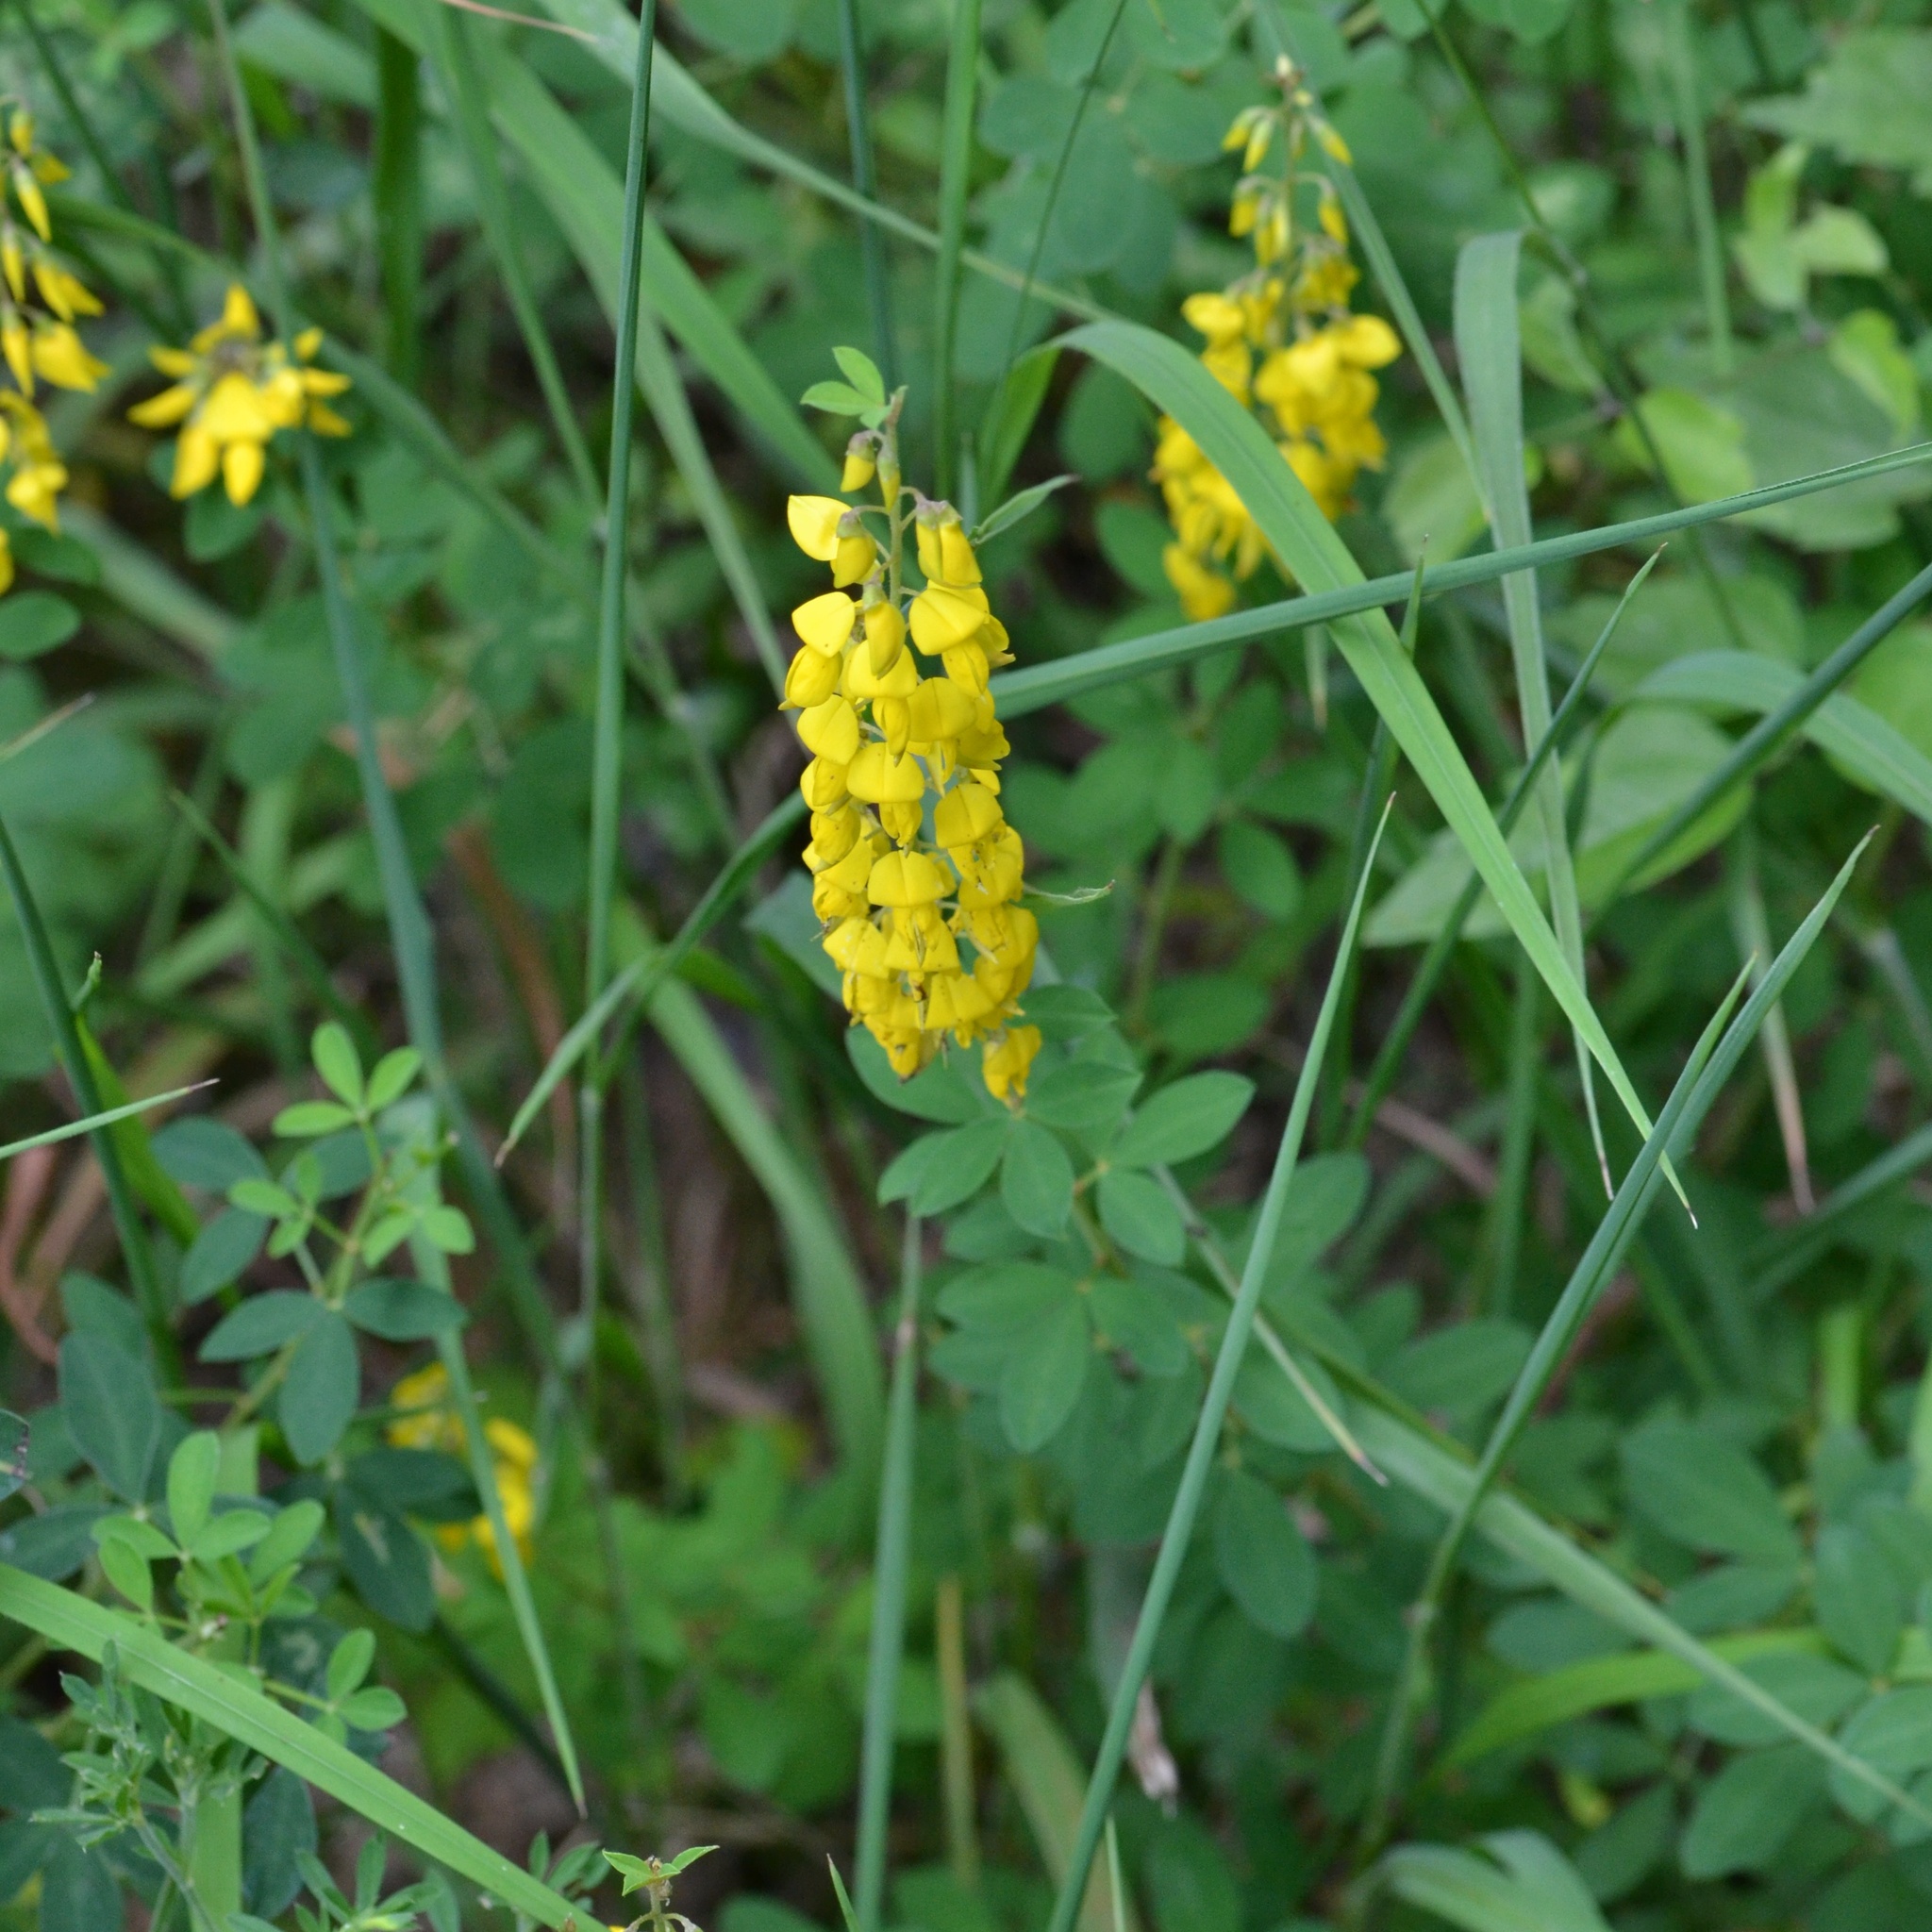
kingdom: Plantae
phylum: Tracheophyta
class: Magnoliopsida
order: Fabales
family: Fabaceae
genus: Cytisus
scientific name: Cytisus nigricans
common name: Black broom
